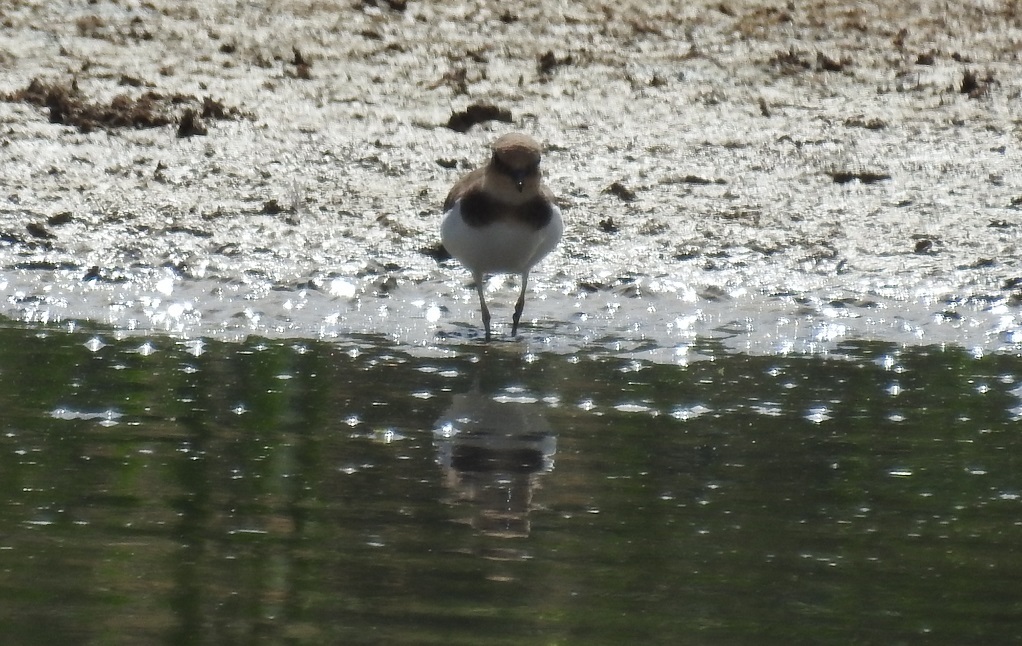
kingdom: Animalia
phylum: Chordata
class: Aves
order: Charadriiformes
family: Charadriidae
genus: Charadrius
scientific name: Charadrius dubius
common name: Little ringed plover
